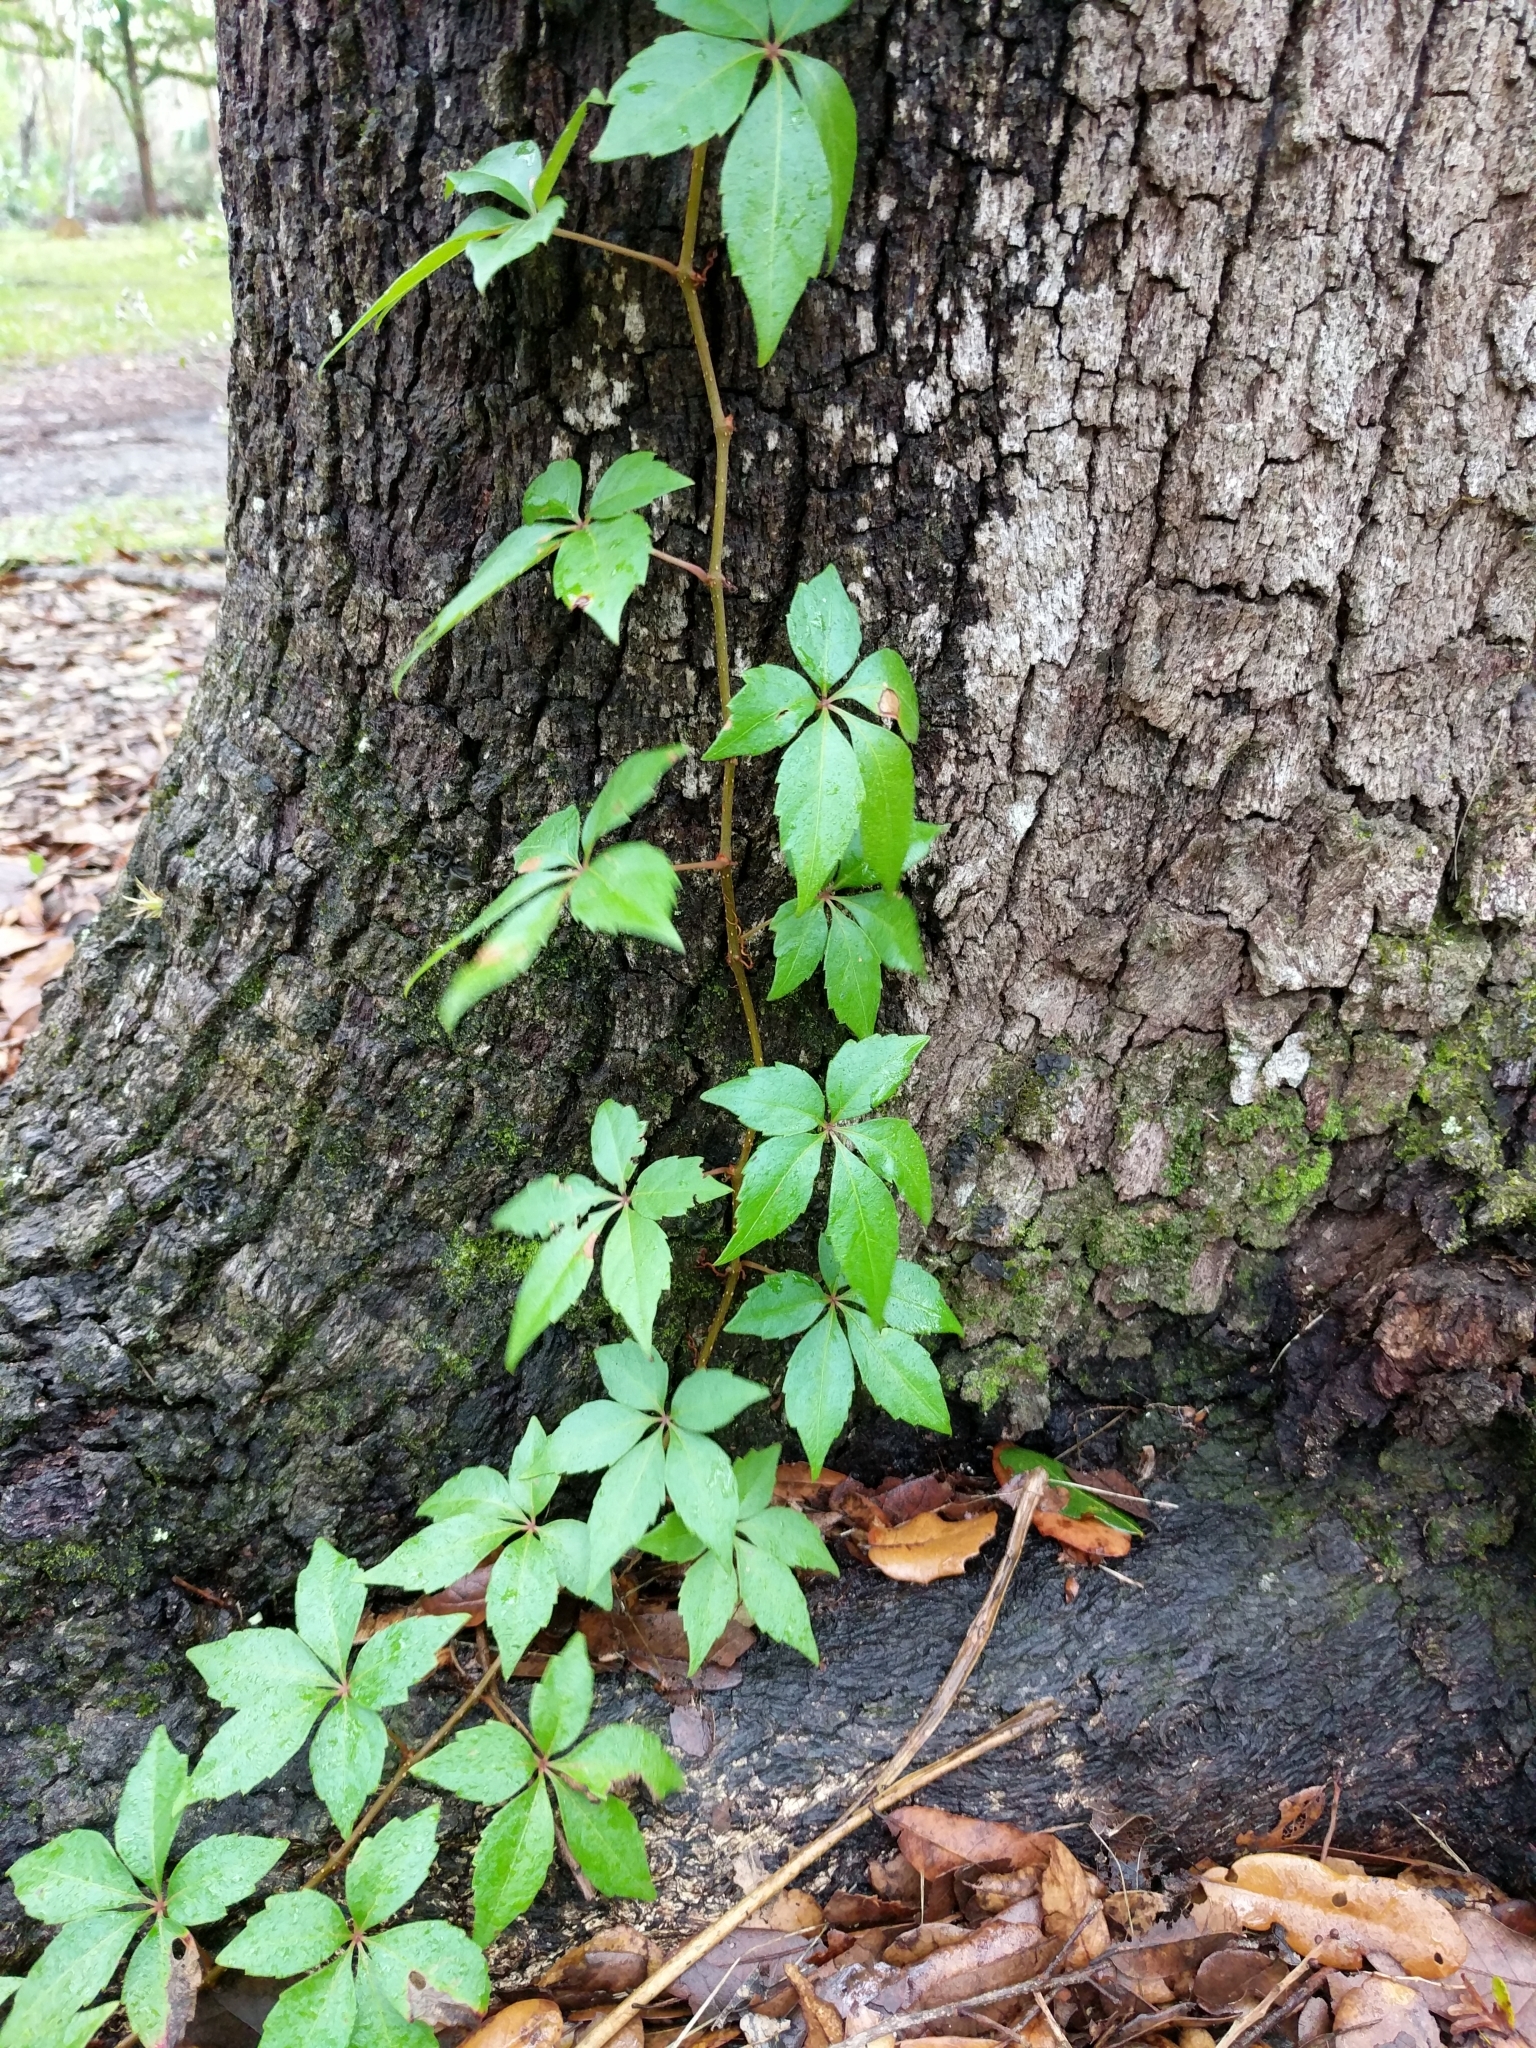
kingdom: Plantae
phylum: Tracheophyta
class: Magnoliopsida
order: Vitales
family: Vitaceae
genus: Parthenocissus
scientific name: Parthenocissus quinquefolia
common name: Virginia-creeper
